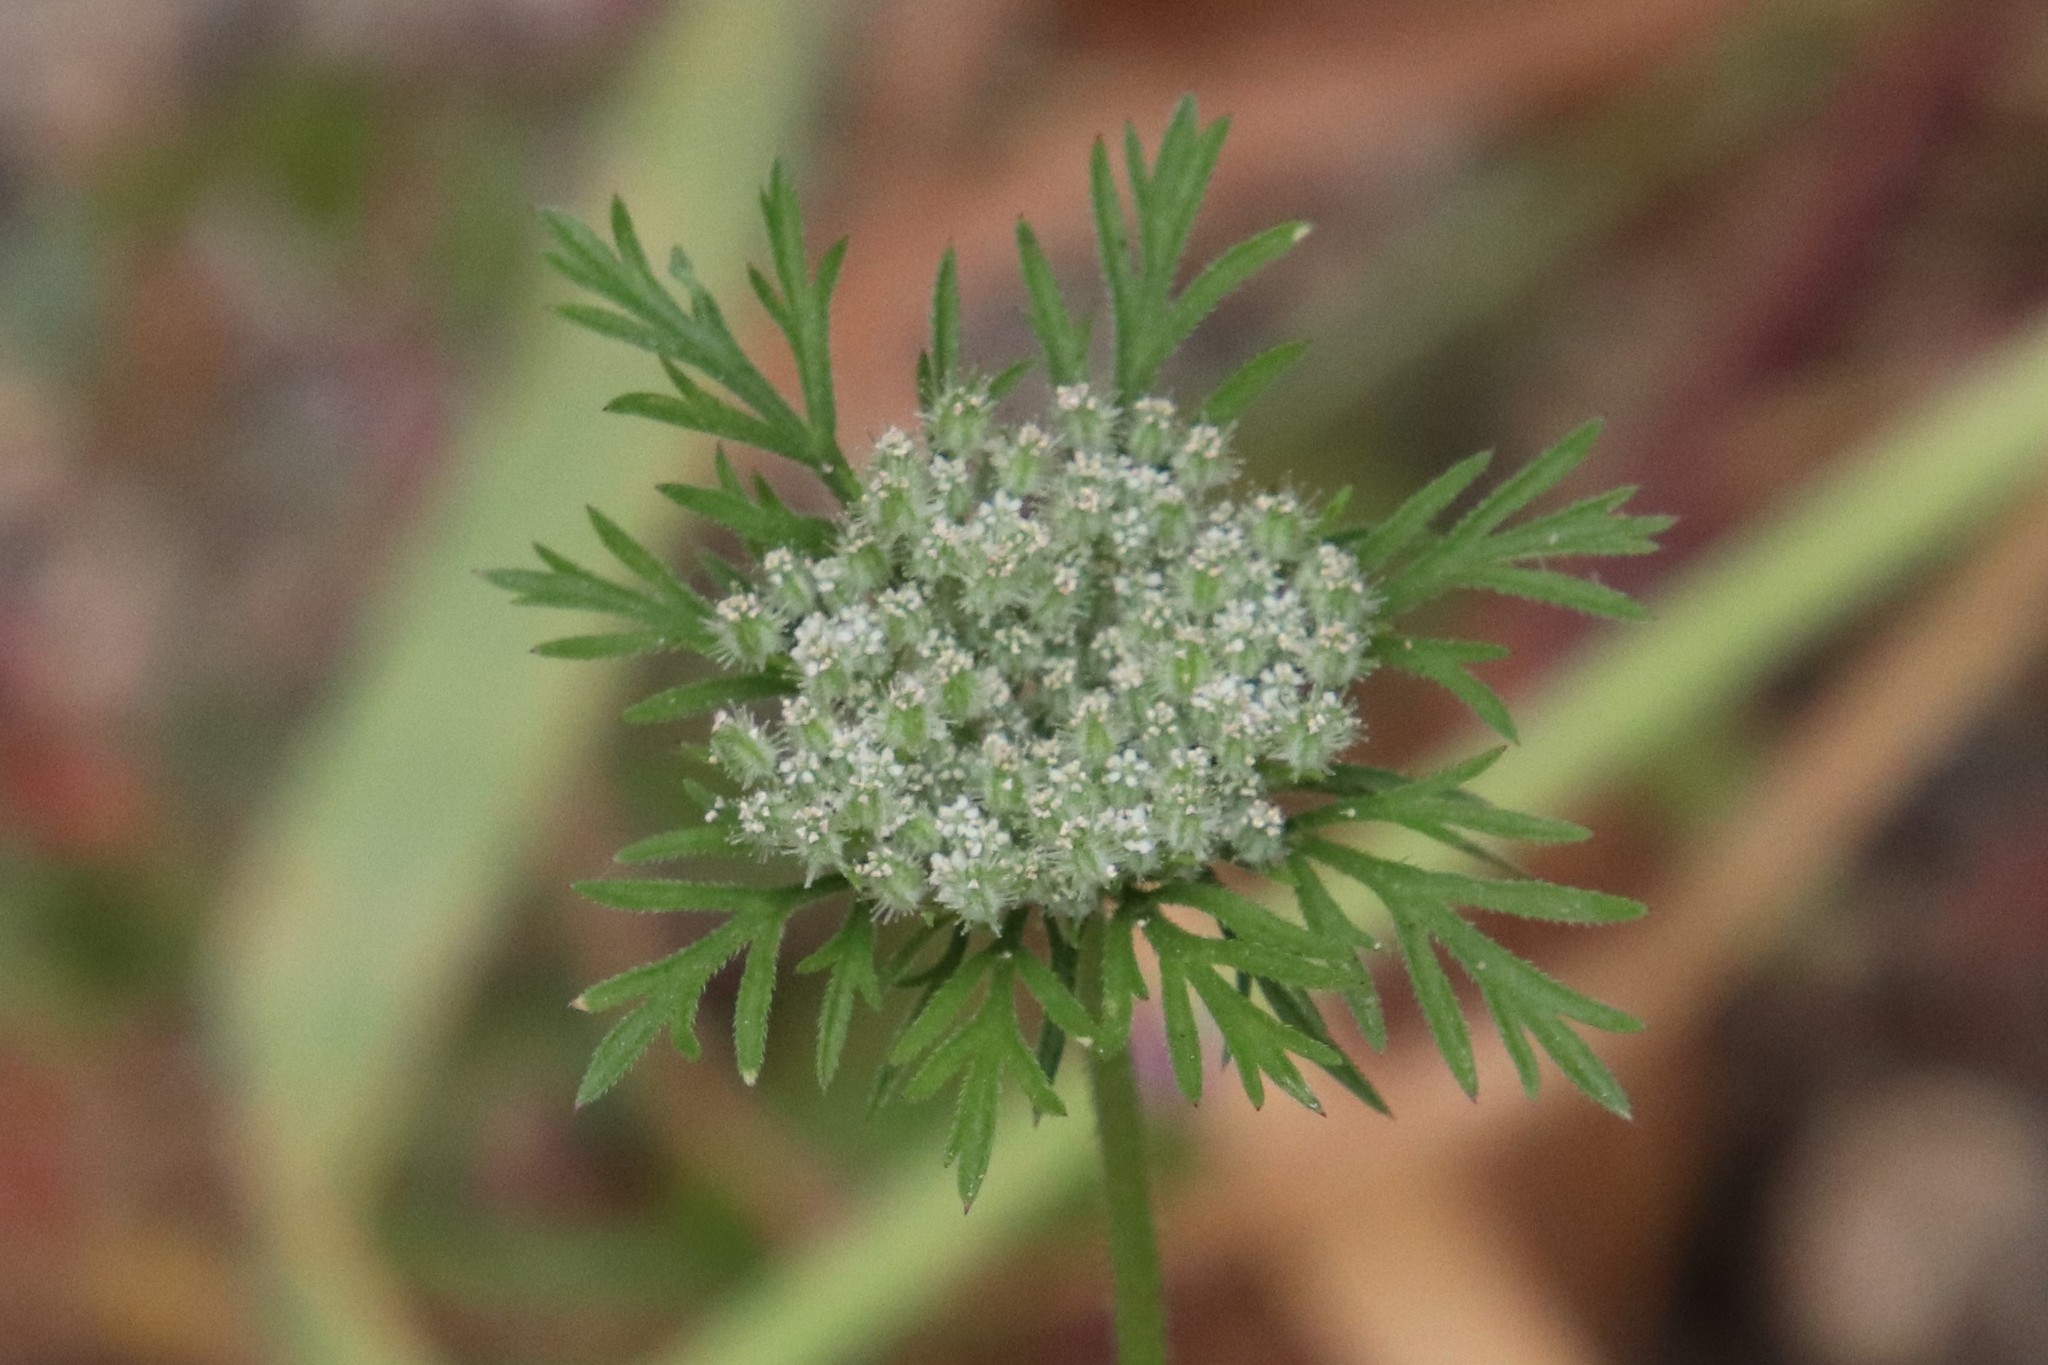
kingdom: Plantae
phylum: Tracheophyta
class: Magnoliopsida
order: Apiales
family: Apiaceae
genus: Daucus
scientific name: Daucus pusillus
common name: Southwest wild carrot
